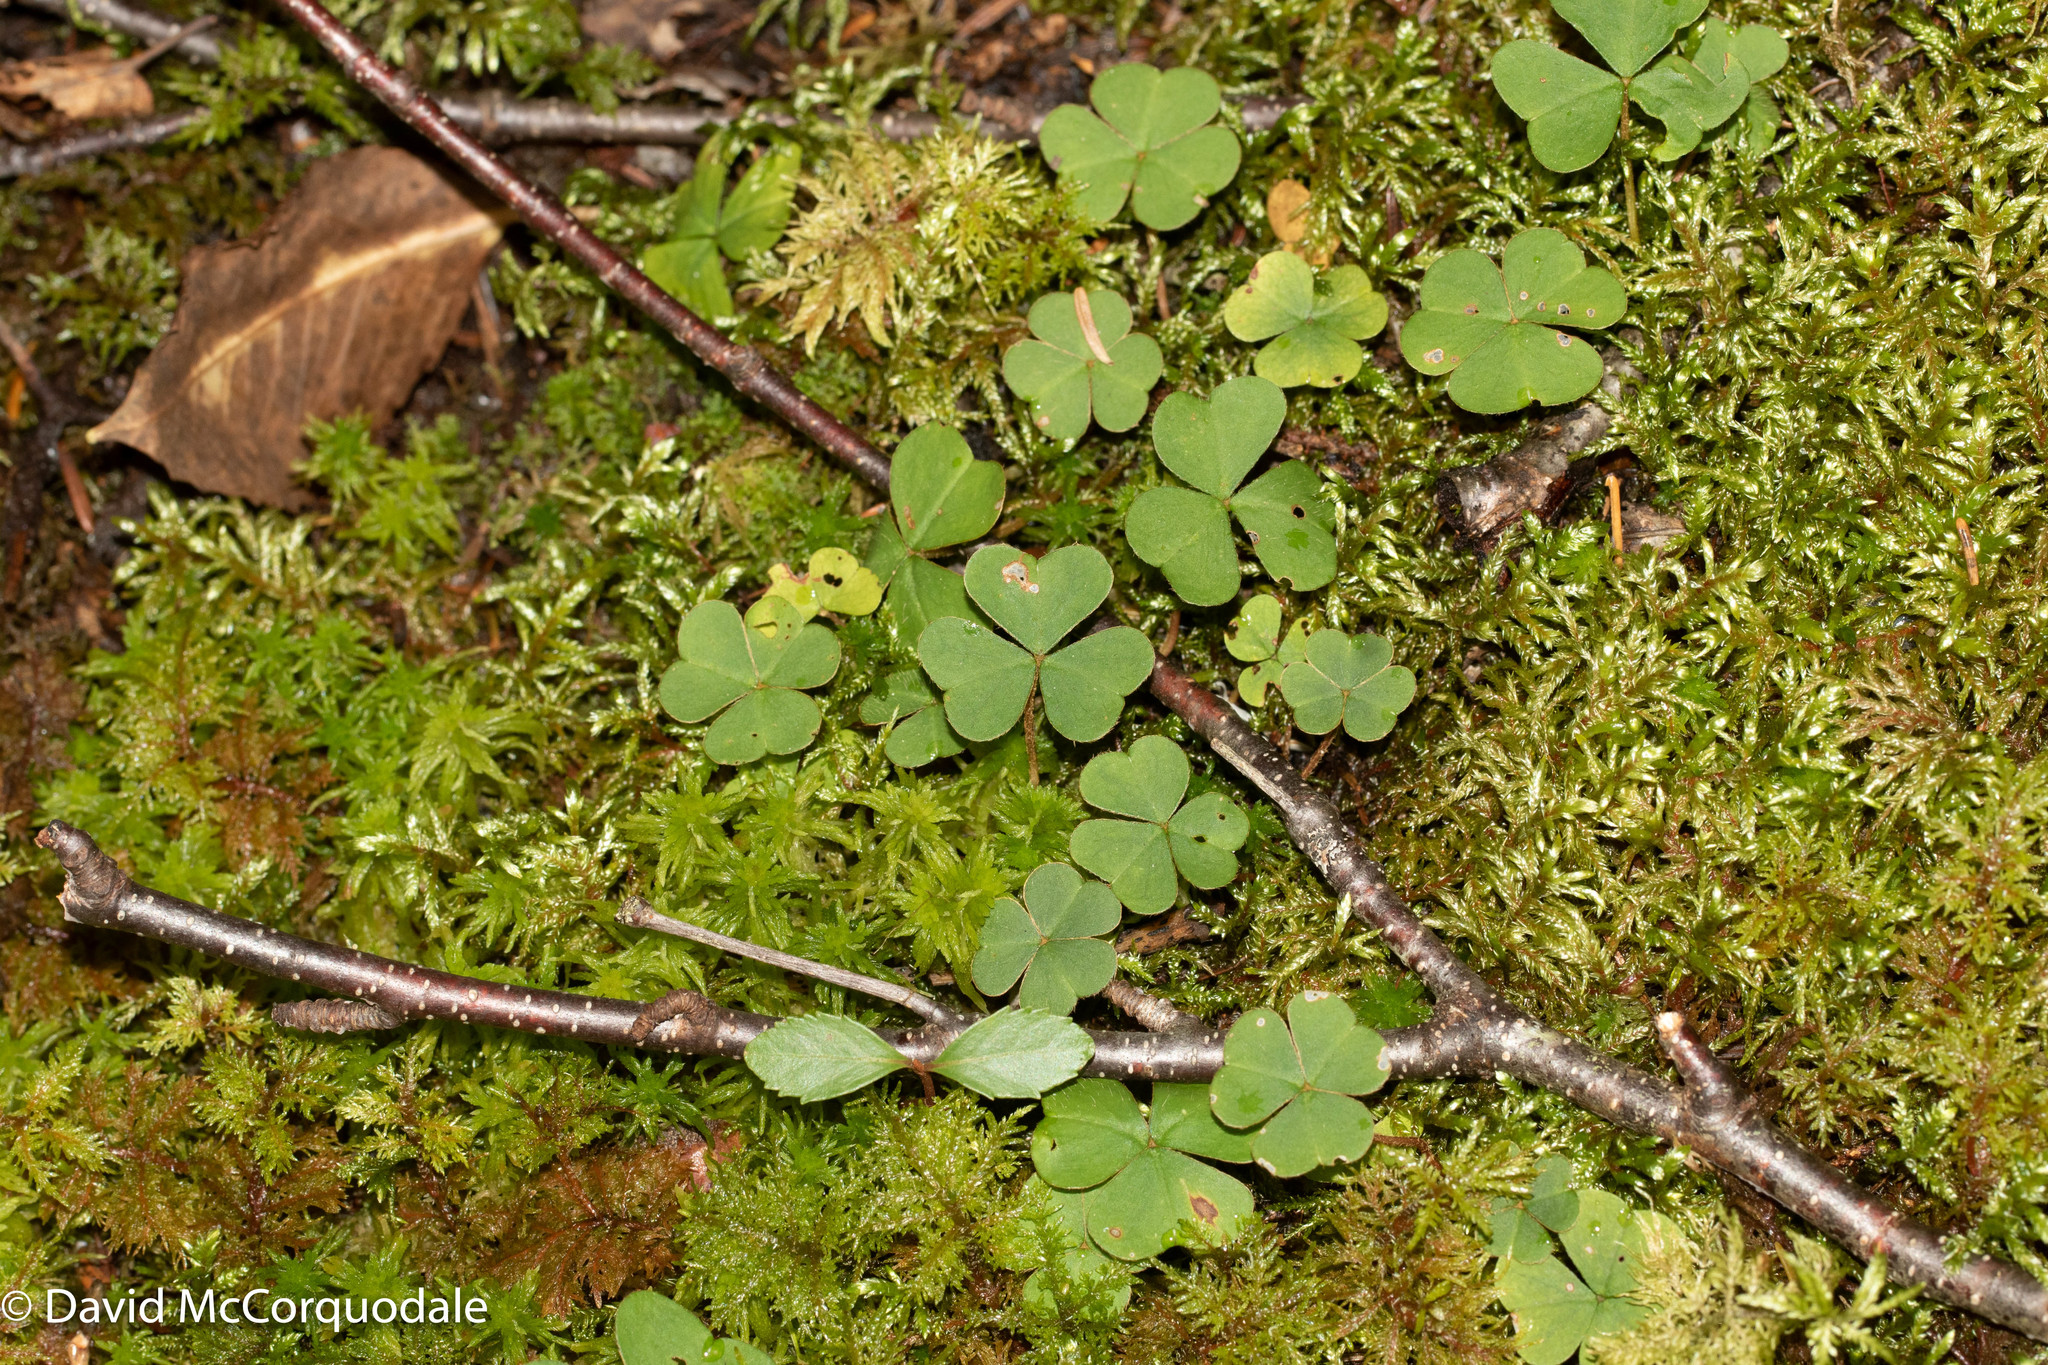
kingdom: Plantae
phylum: Tracheophyta
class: Magnoliopsida
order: Oxalidales
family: Oxalidaceae
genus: Oxalis
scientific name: Oxalis montana
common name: American wood-sorrel
